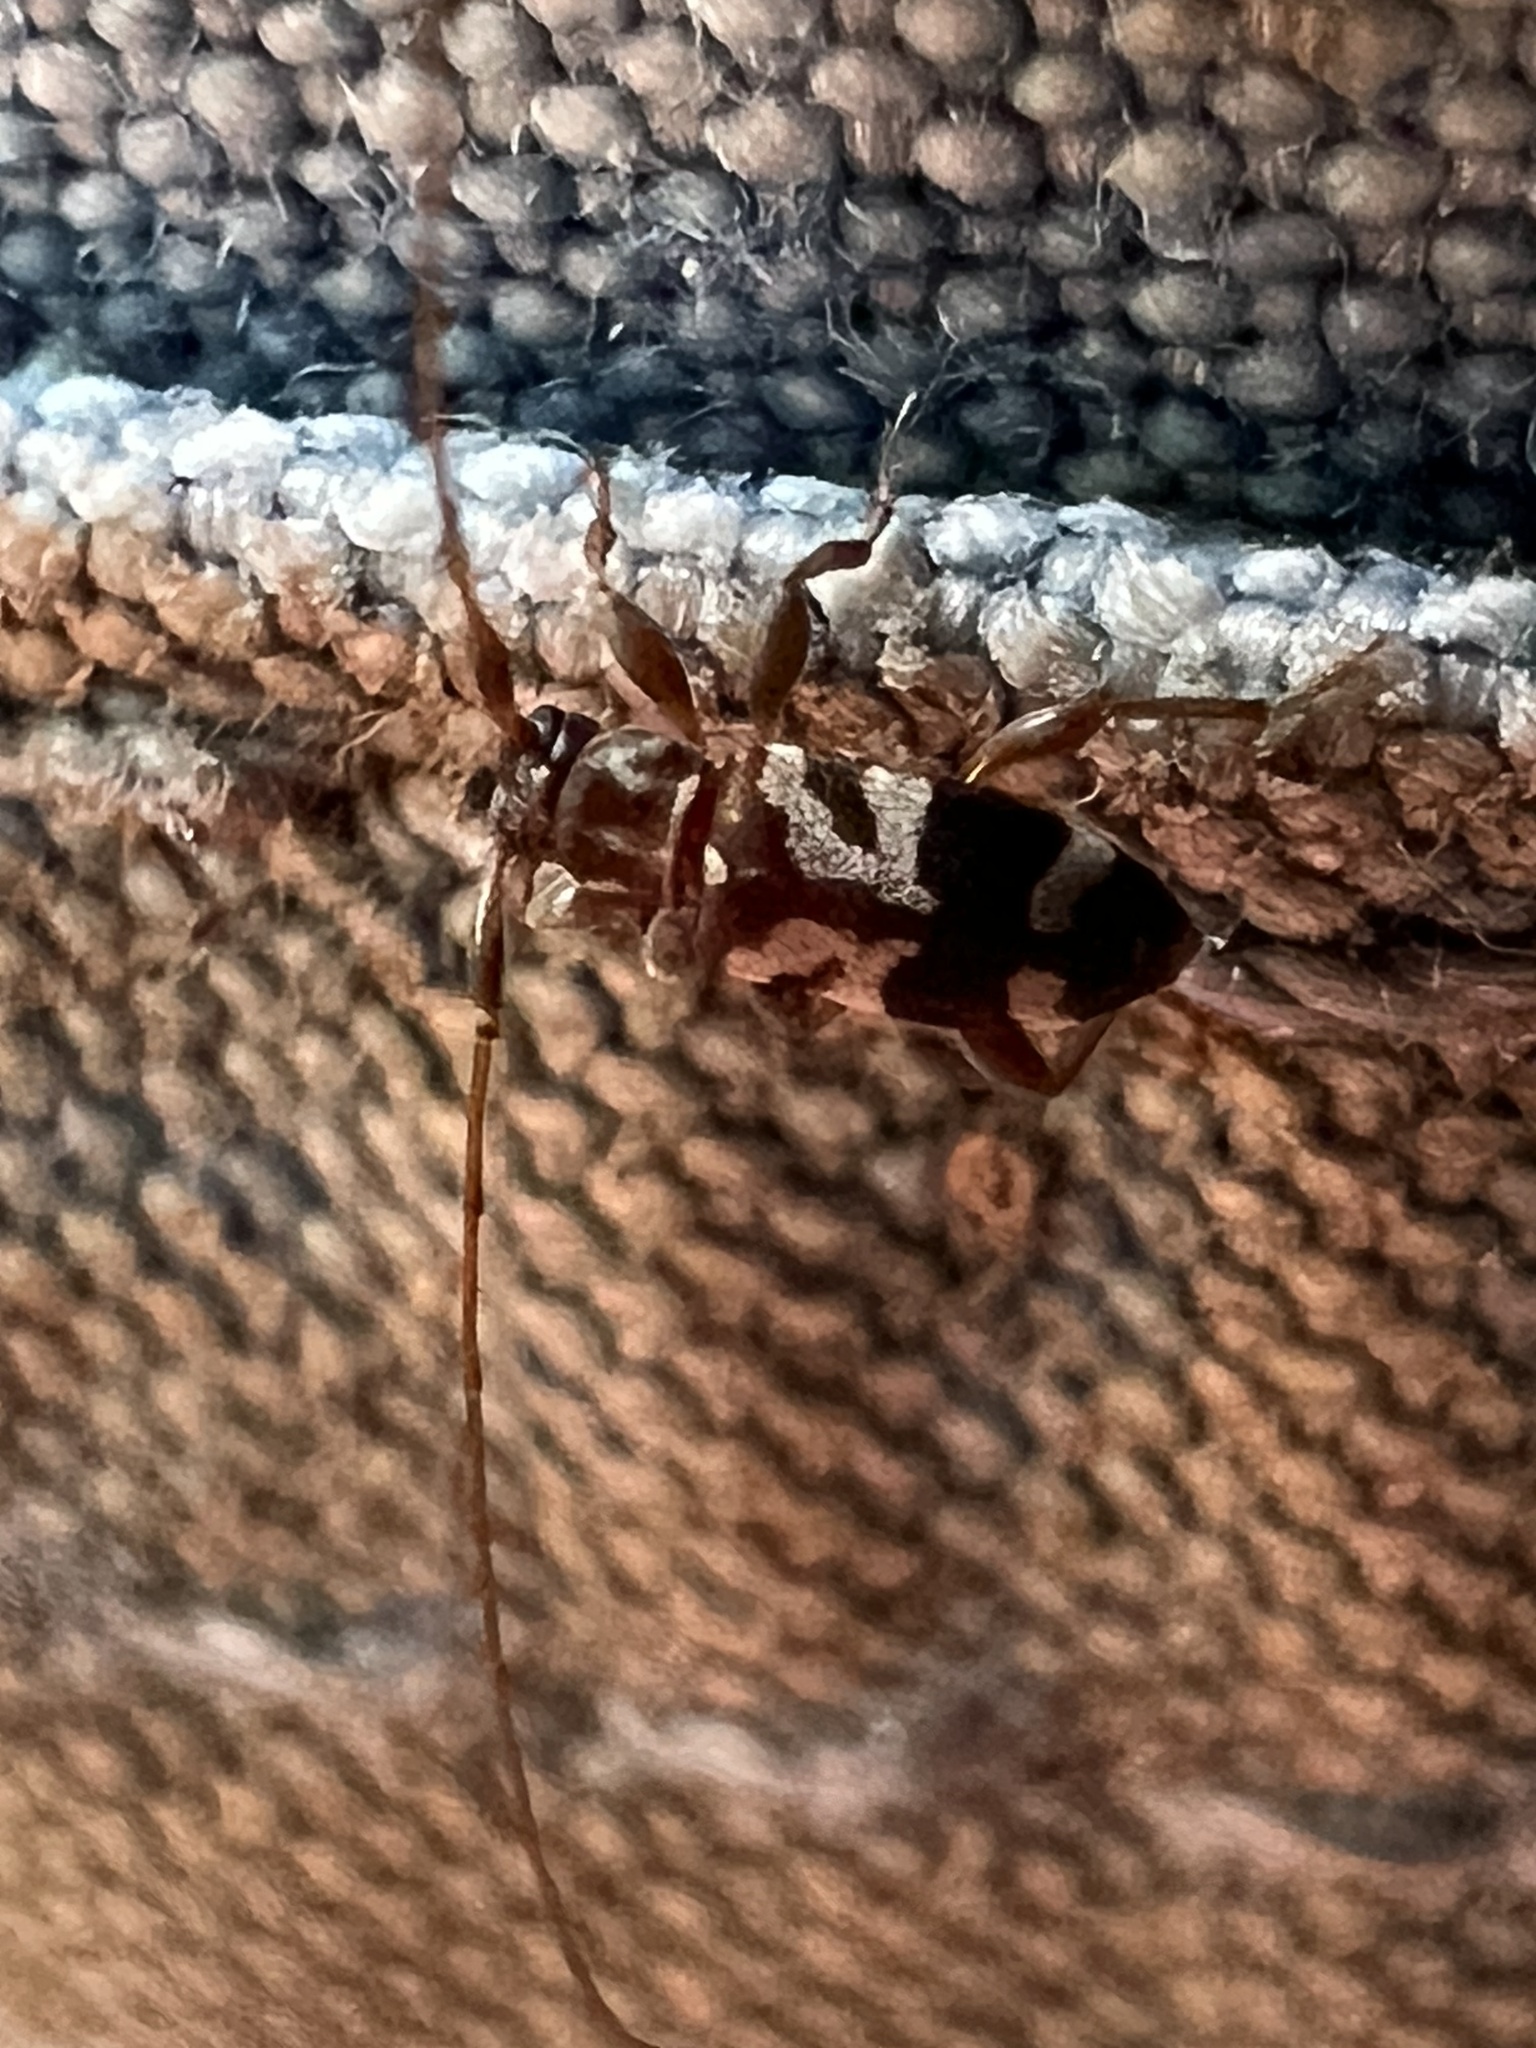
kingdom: Animalia
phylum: Arthropoda
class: Insecta
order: Coleoptera
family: Cerambycidae
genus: Urgleptes
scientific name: Urgleptes facetus
